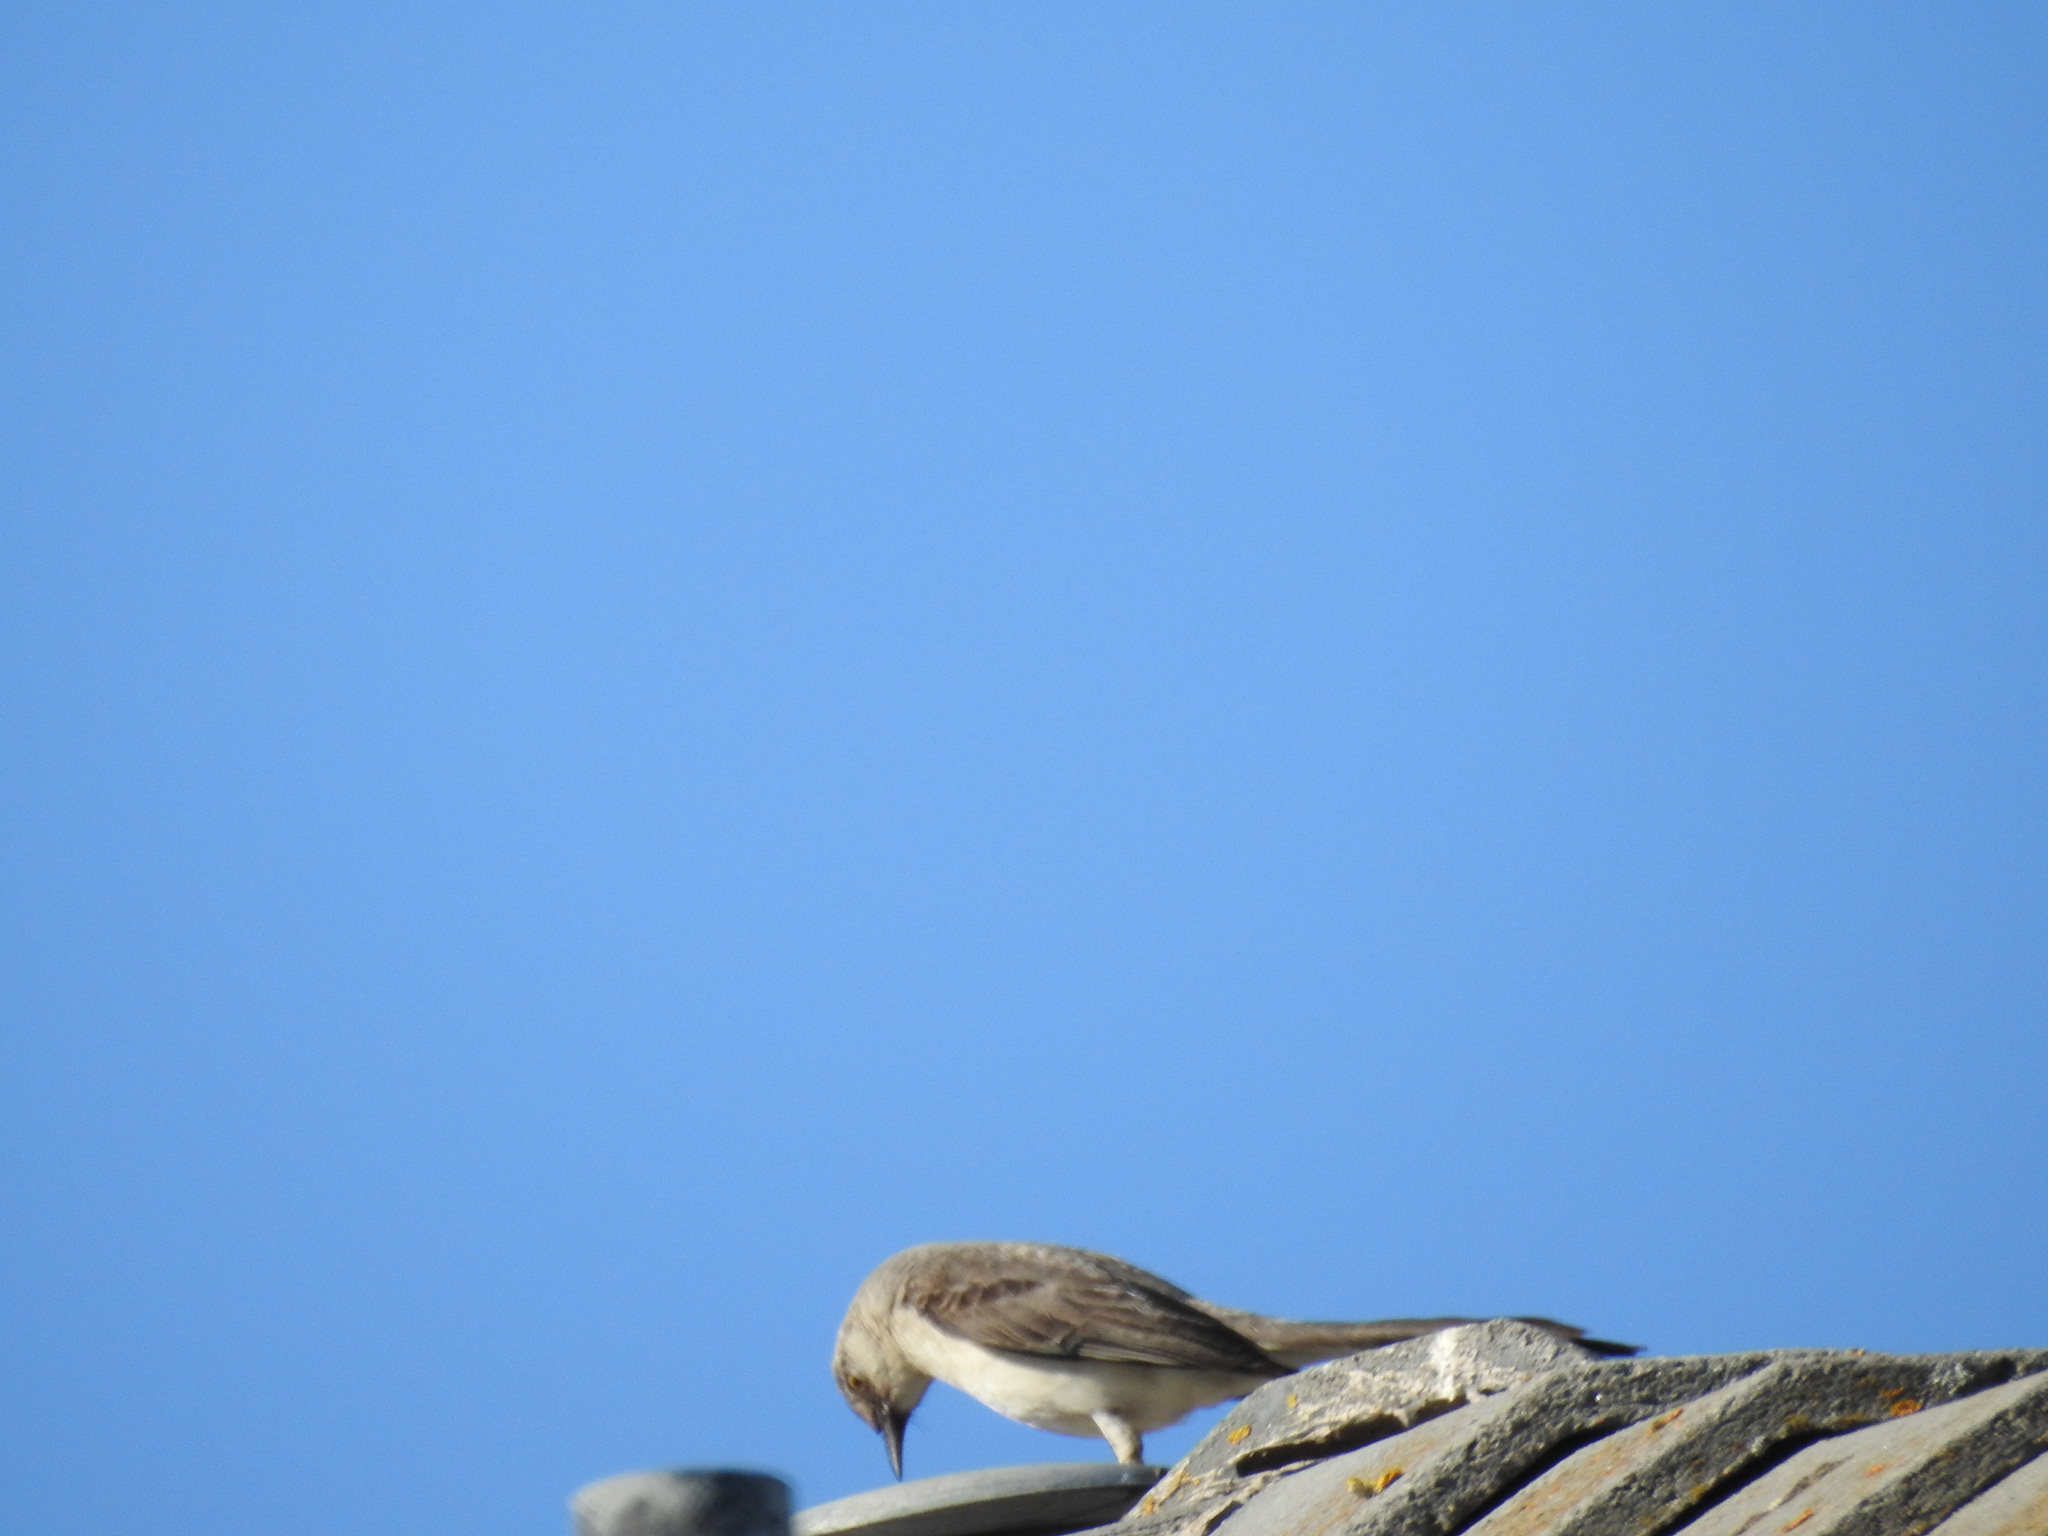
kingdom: Animalia
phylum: Chordata
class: Aves
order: Passeriformes
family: Mimidae
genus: Mimus
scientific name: Mimus polyglottos
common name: Northern mockingbird
